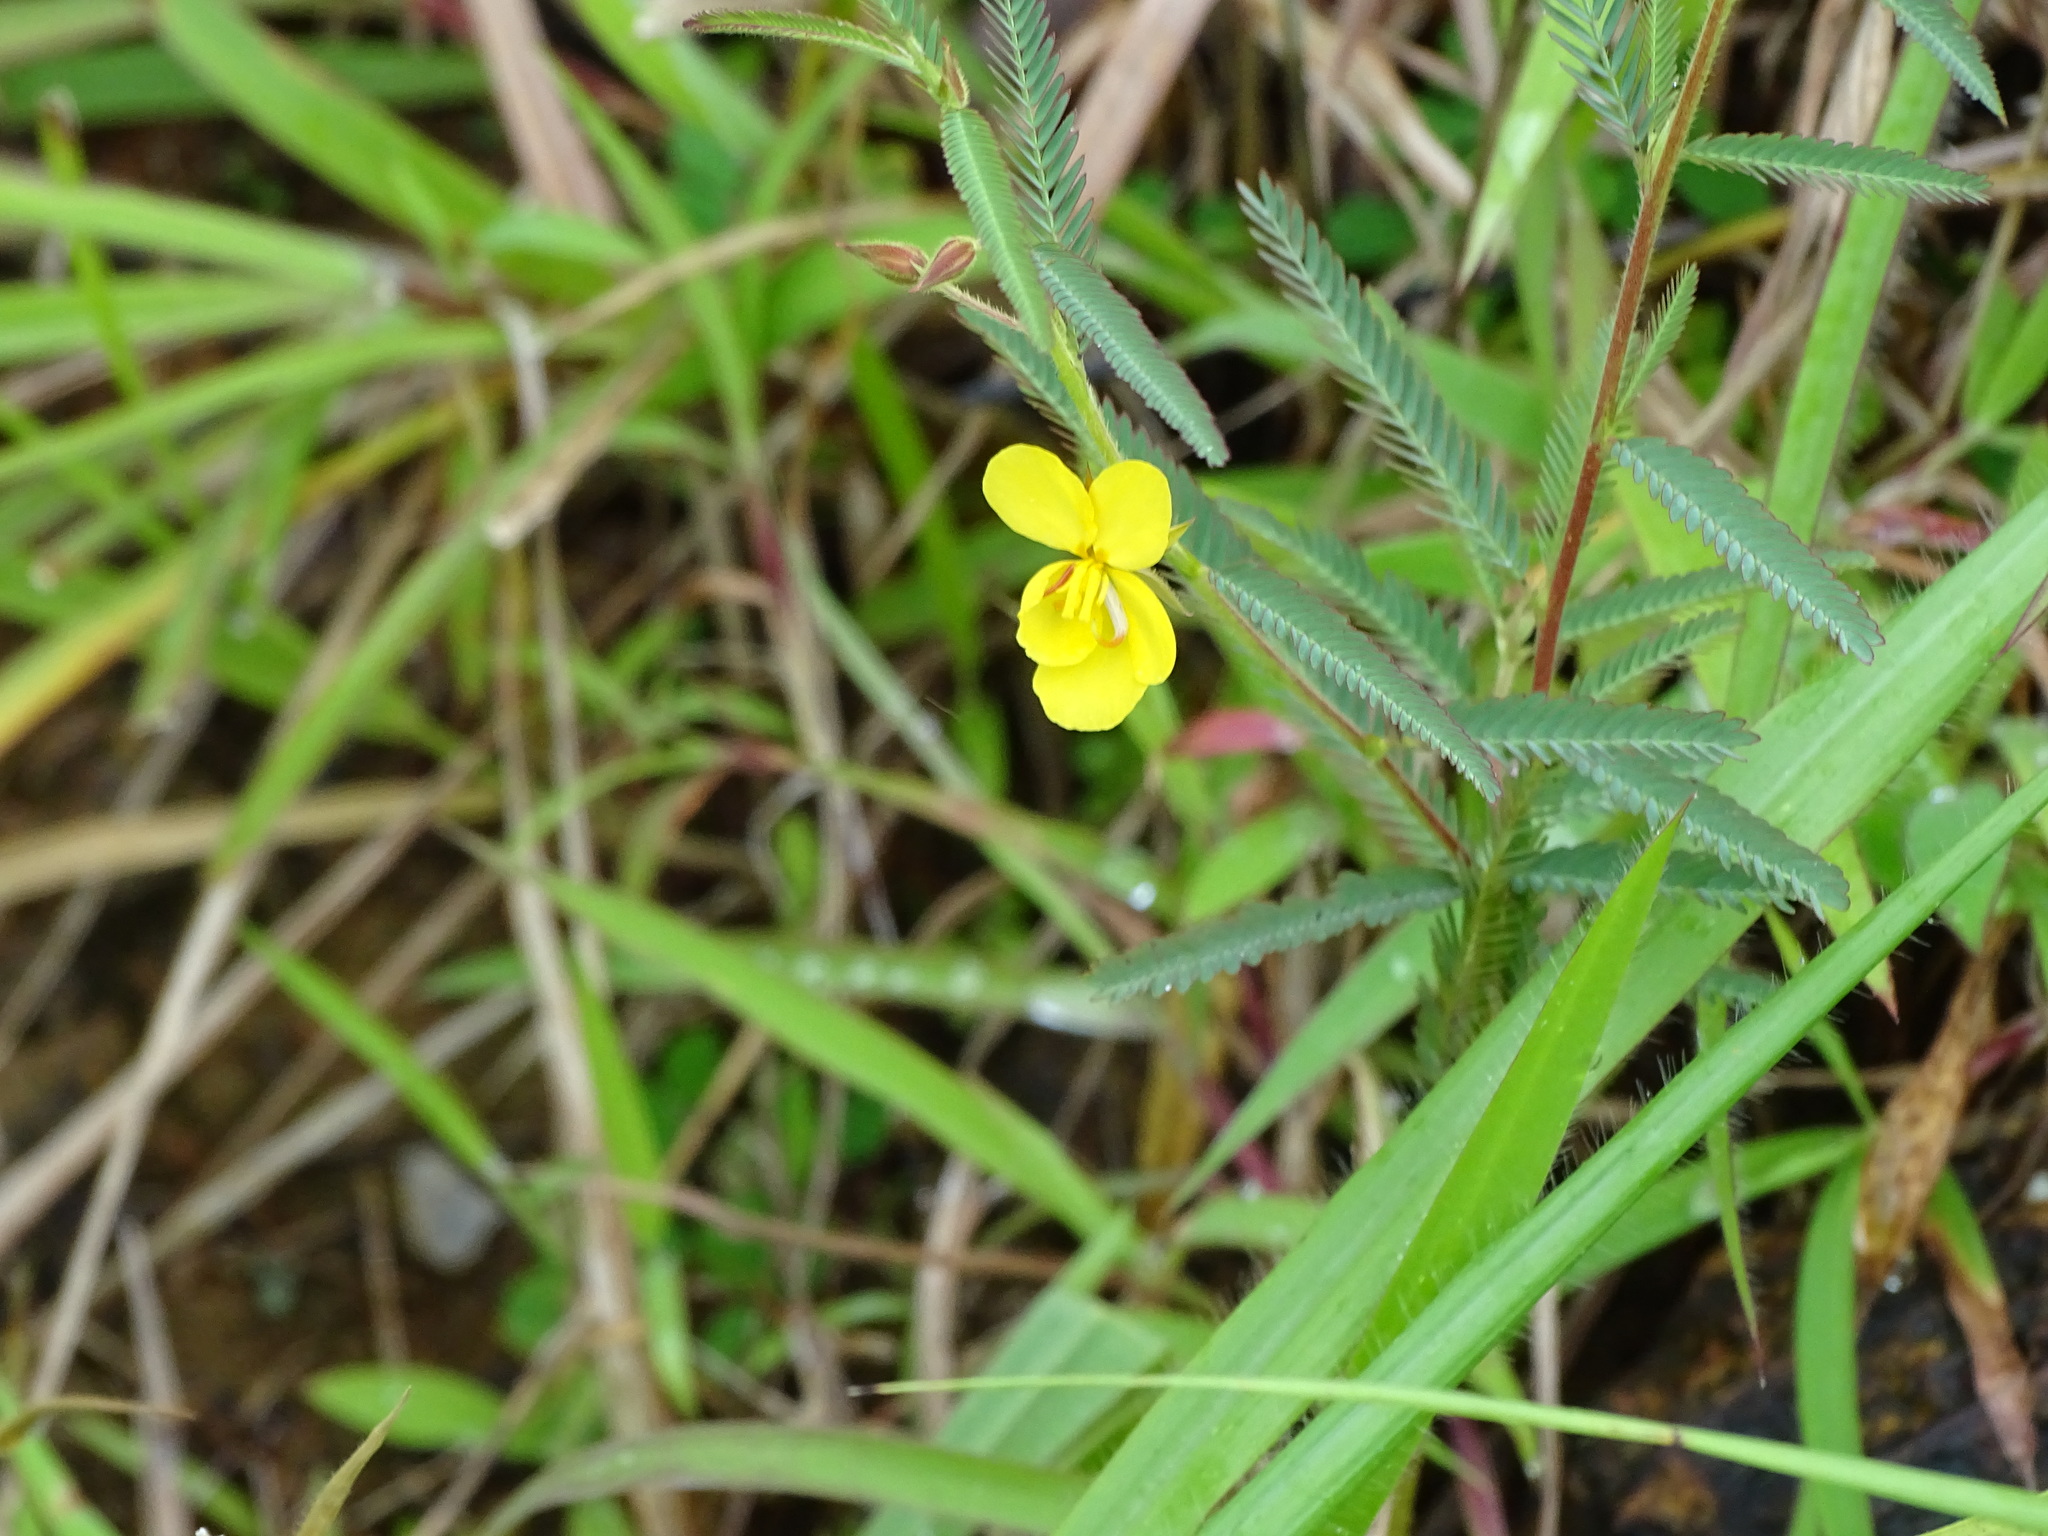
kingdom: Plantae
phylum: Tracheophyta
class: Magnoliopsida
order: Fabales
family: Fabaceae
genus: Chamaecrista
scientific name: Chamaecrista mimosoides
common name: Fish-bone cassia
